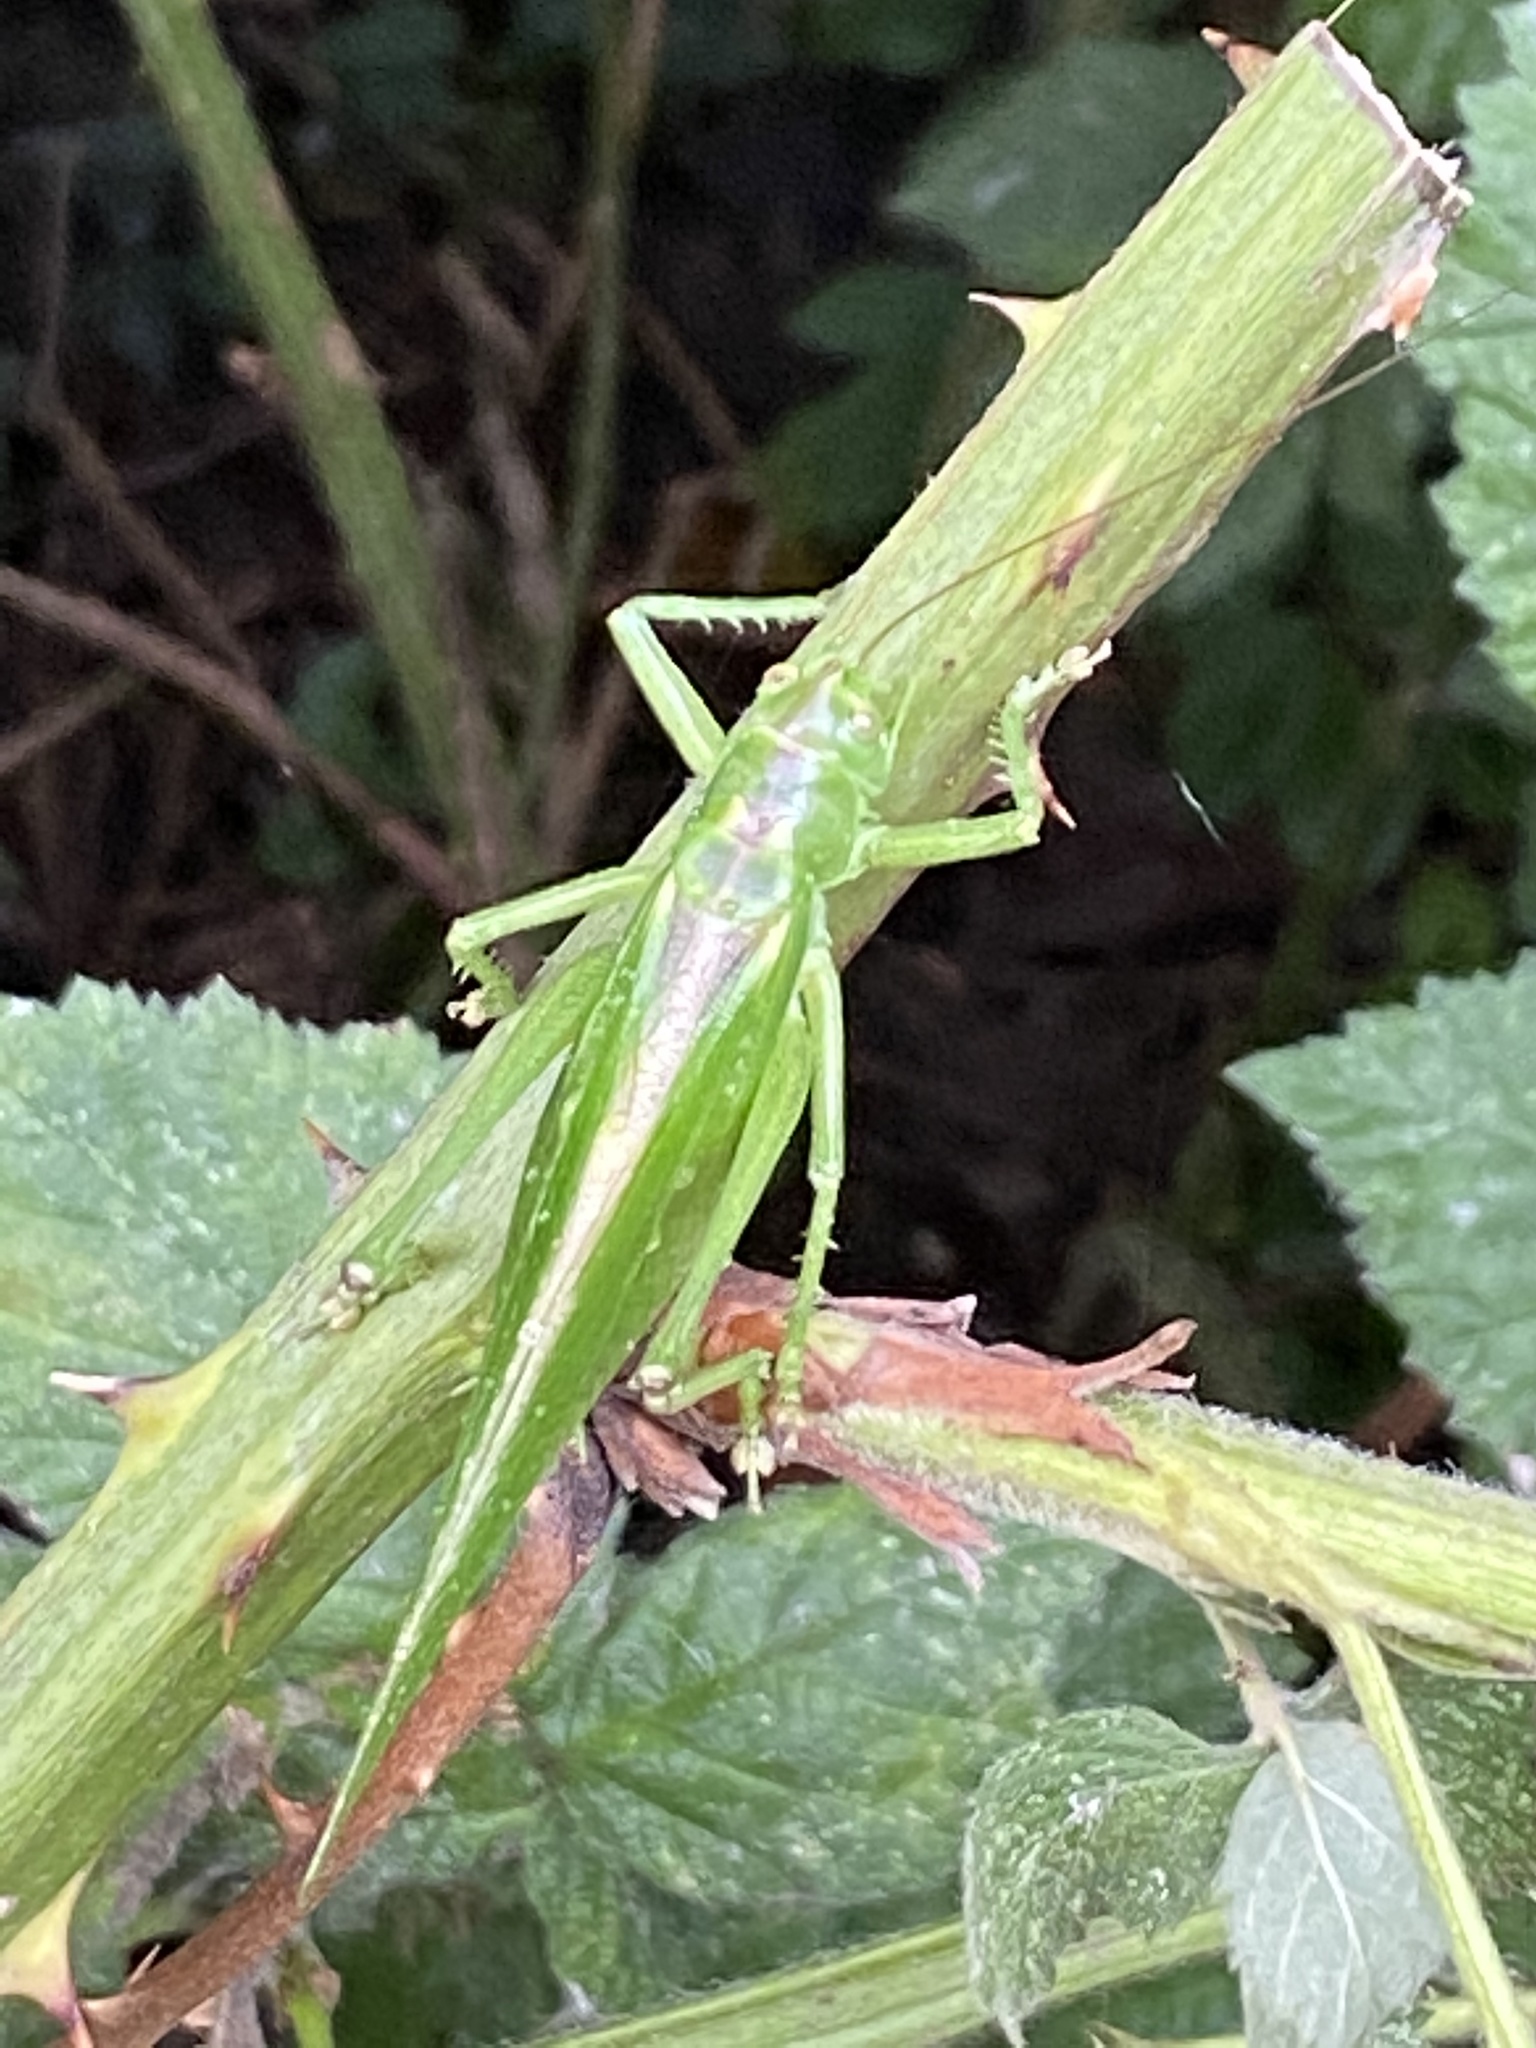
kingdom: Animalia
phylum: Arthropoda
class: Insecta
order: Orthoptera
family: Tettigoniidae
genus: Tettigonia
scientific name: Tettigonia viridissima
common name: Great green bush-cricket
